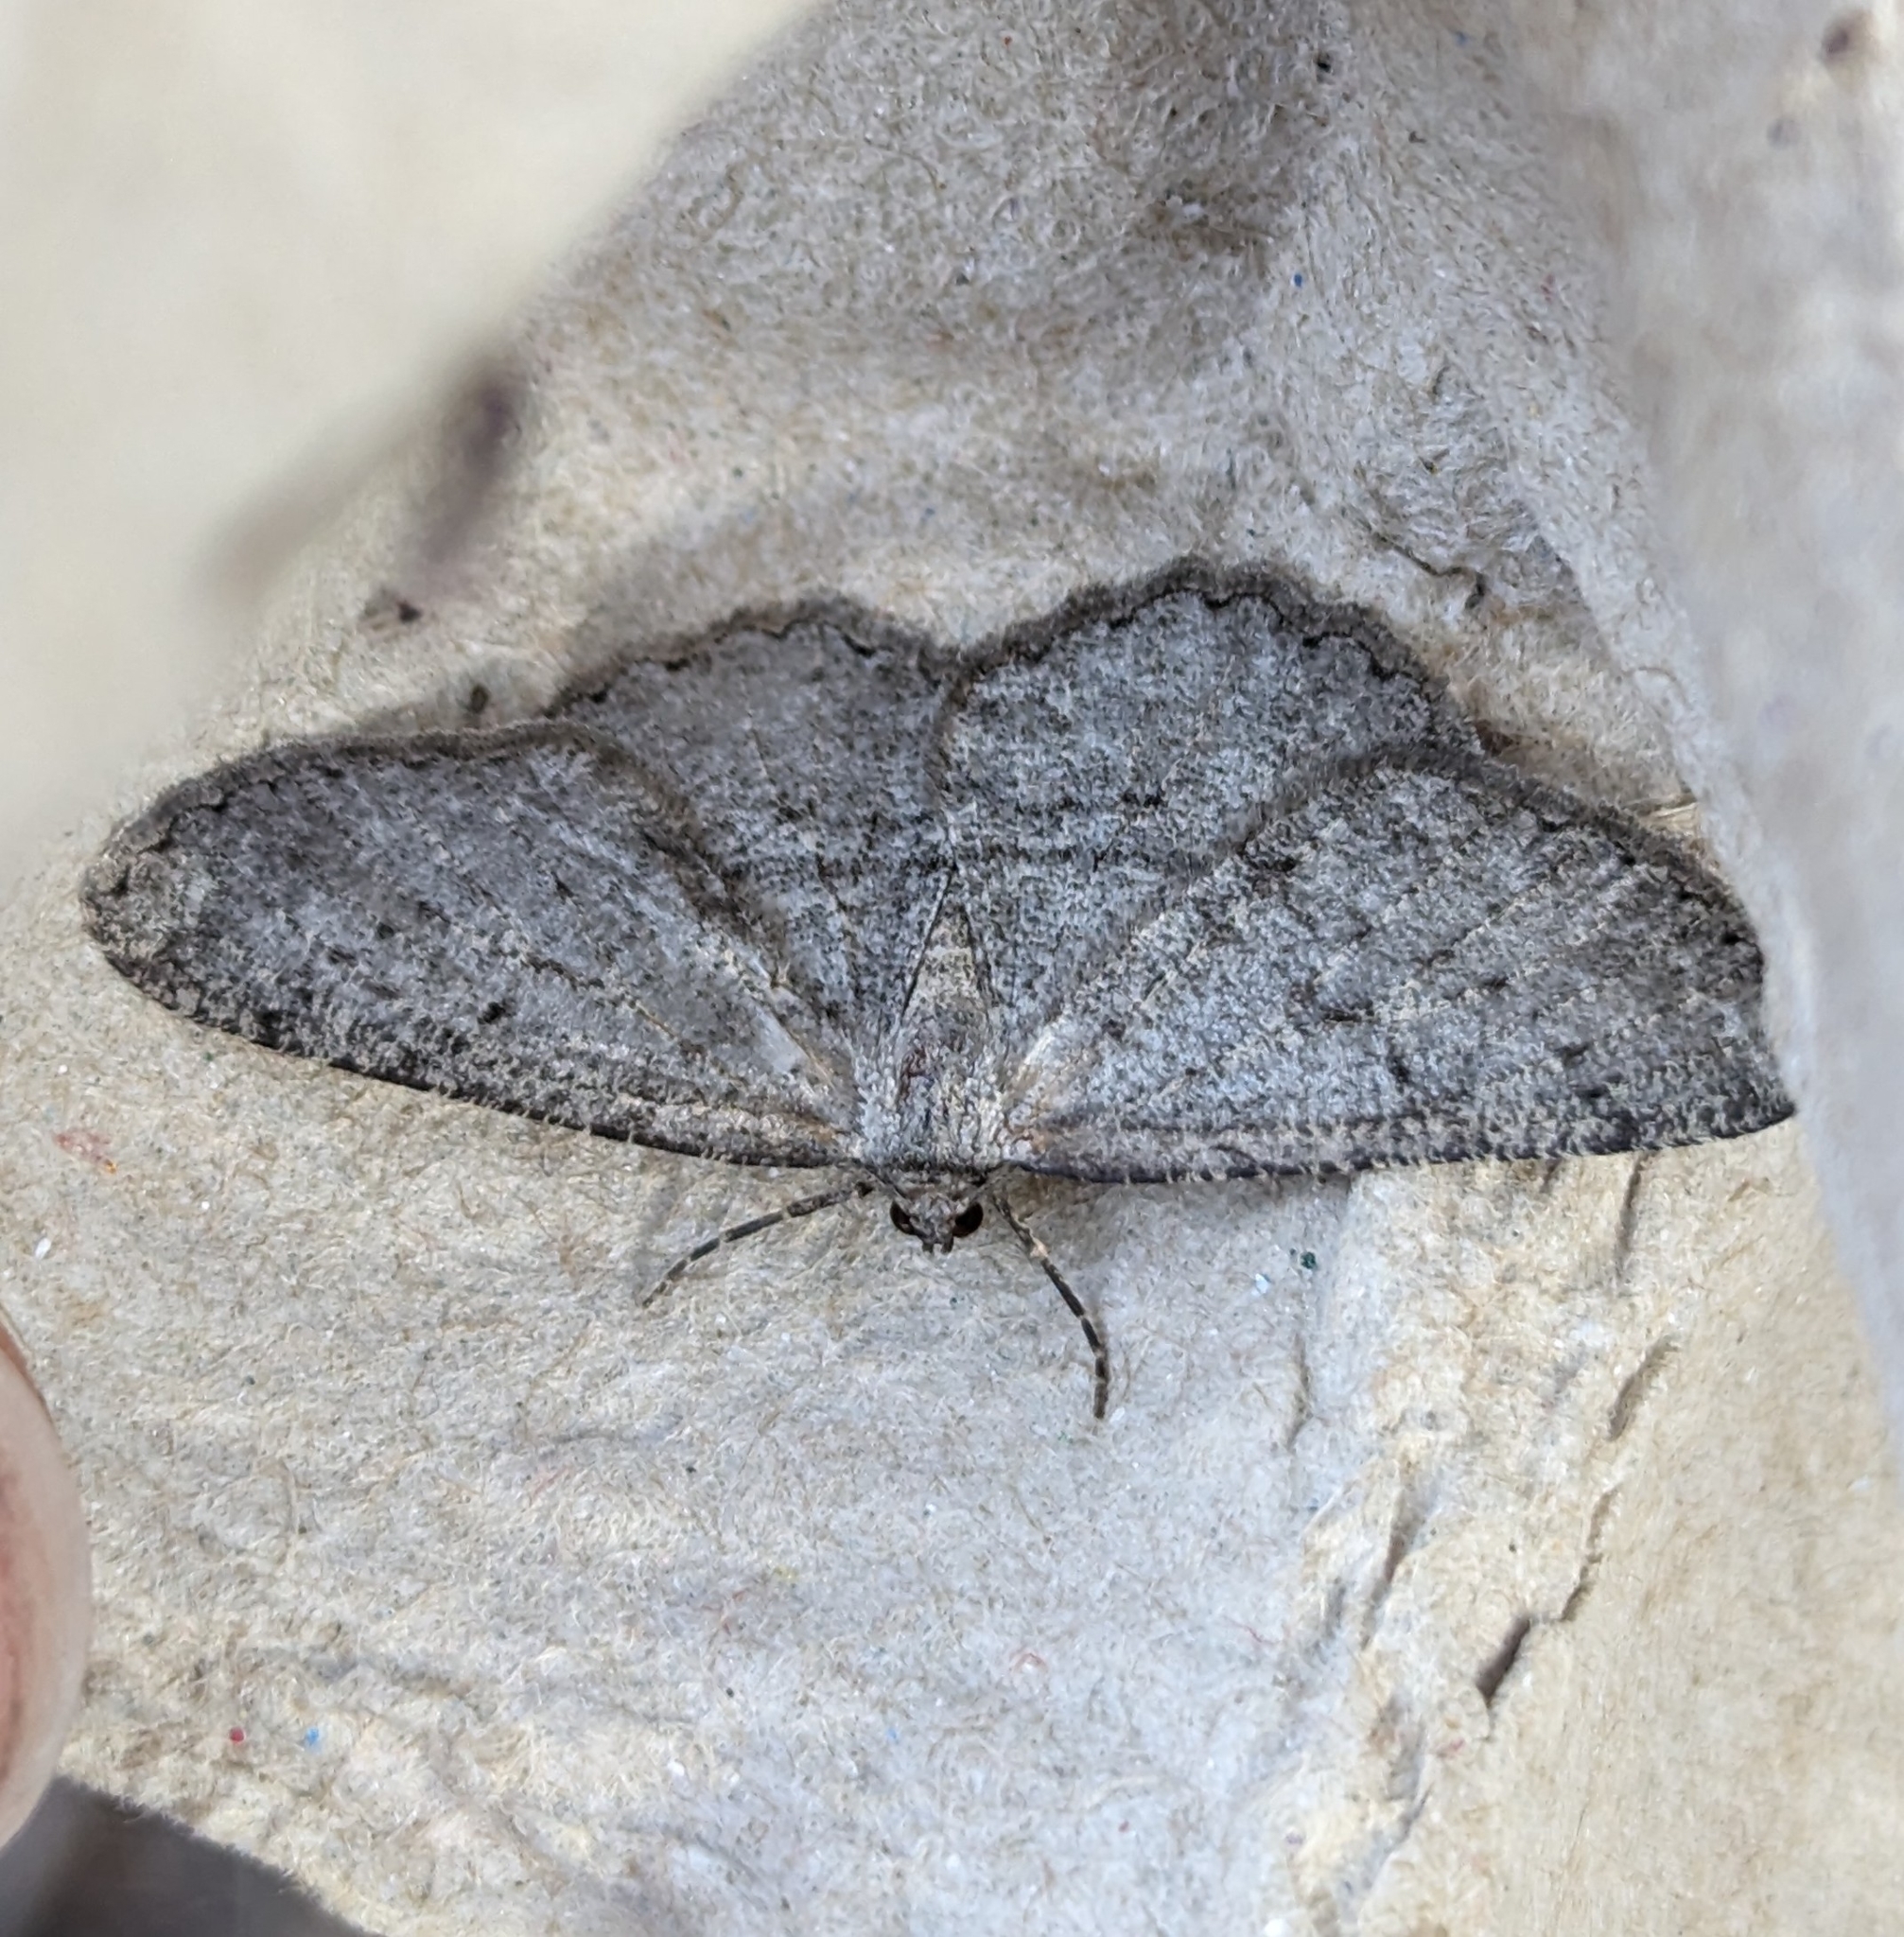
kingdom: Animalia
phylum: Arthropoda
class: Insecta
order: Lepidoptera
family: Geometridae
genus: Hesperumia
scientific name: Hesperumia latipennis
